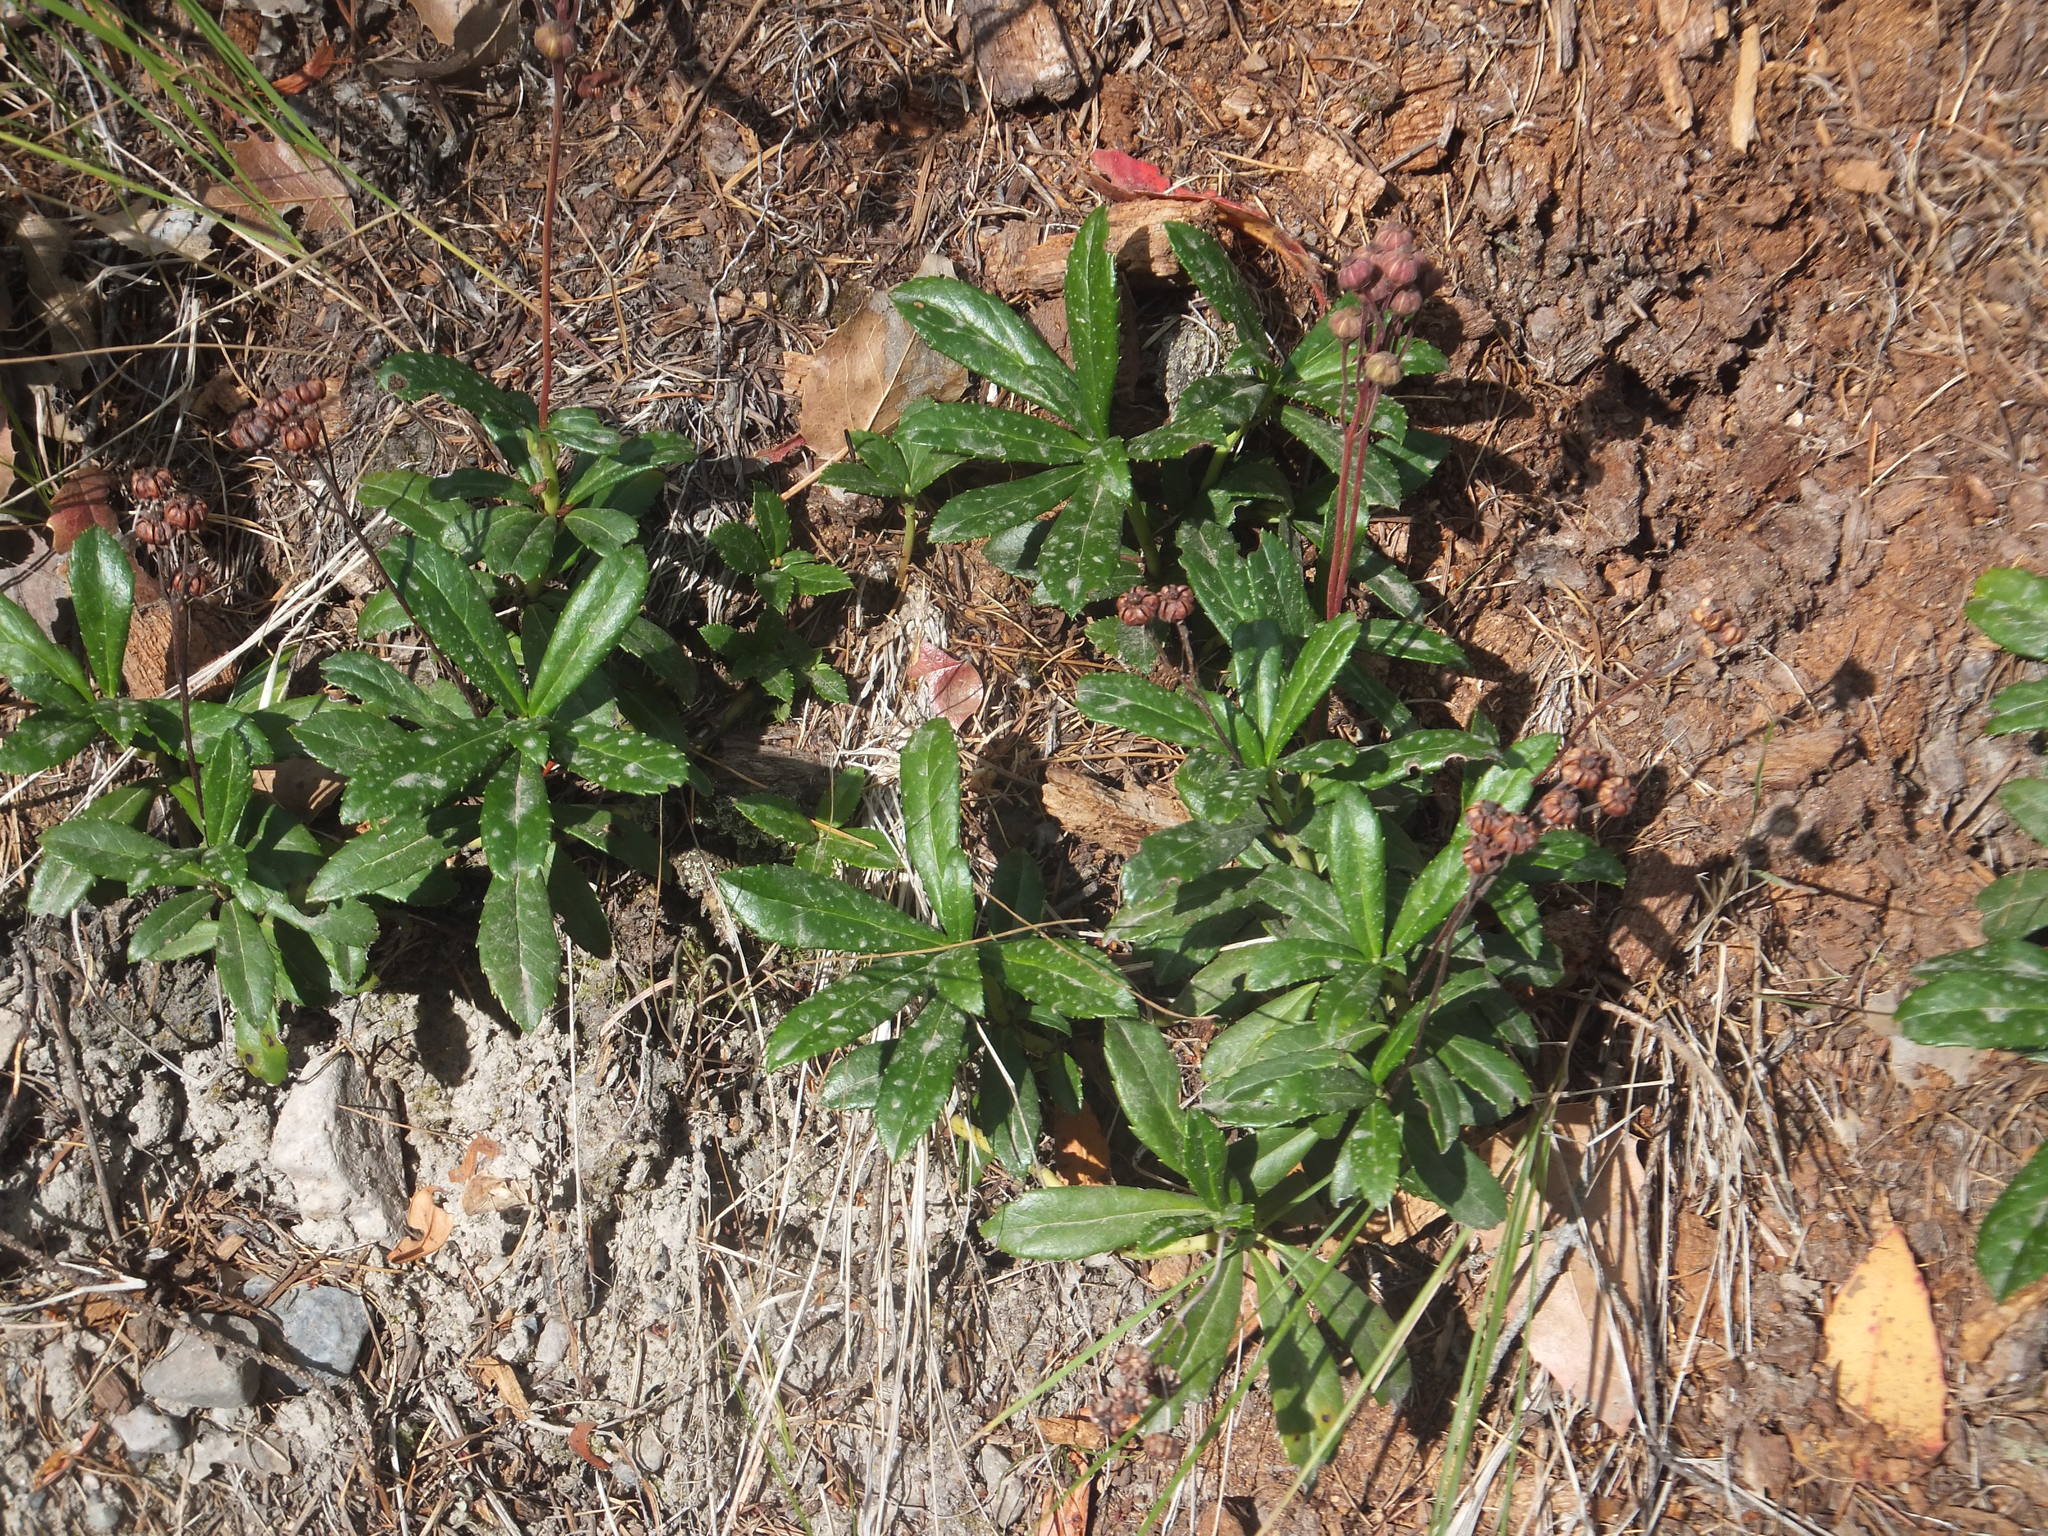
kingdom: Plantae
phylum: Tracheophyta
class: Magnoliopsida
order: Ericales
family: Ericaceae
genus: Chimaphila
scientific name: Chimaphila umbellata
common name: Pipsissewa
